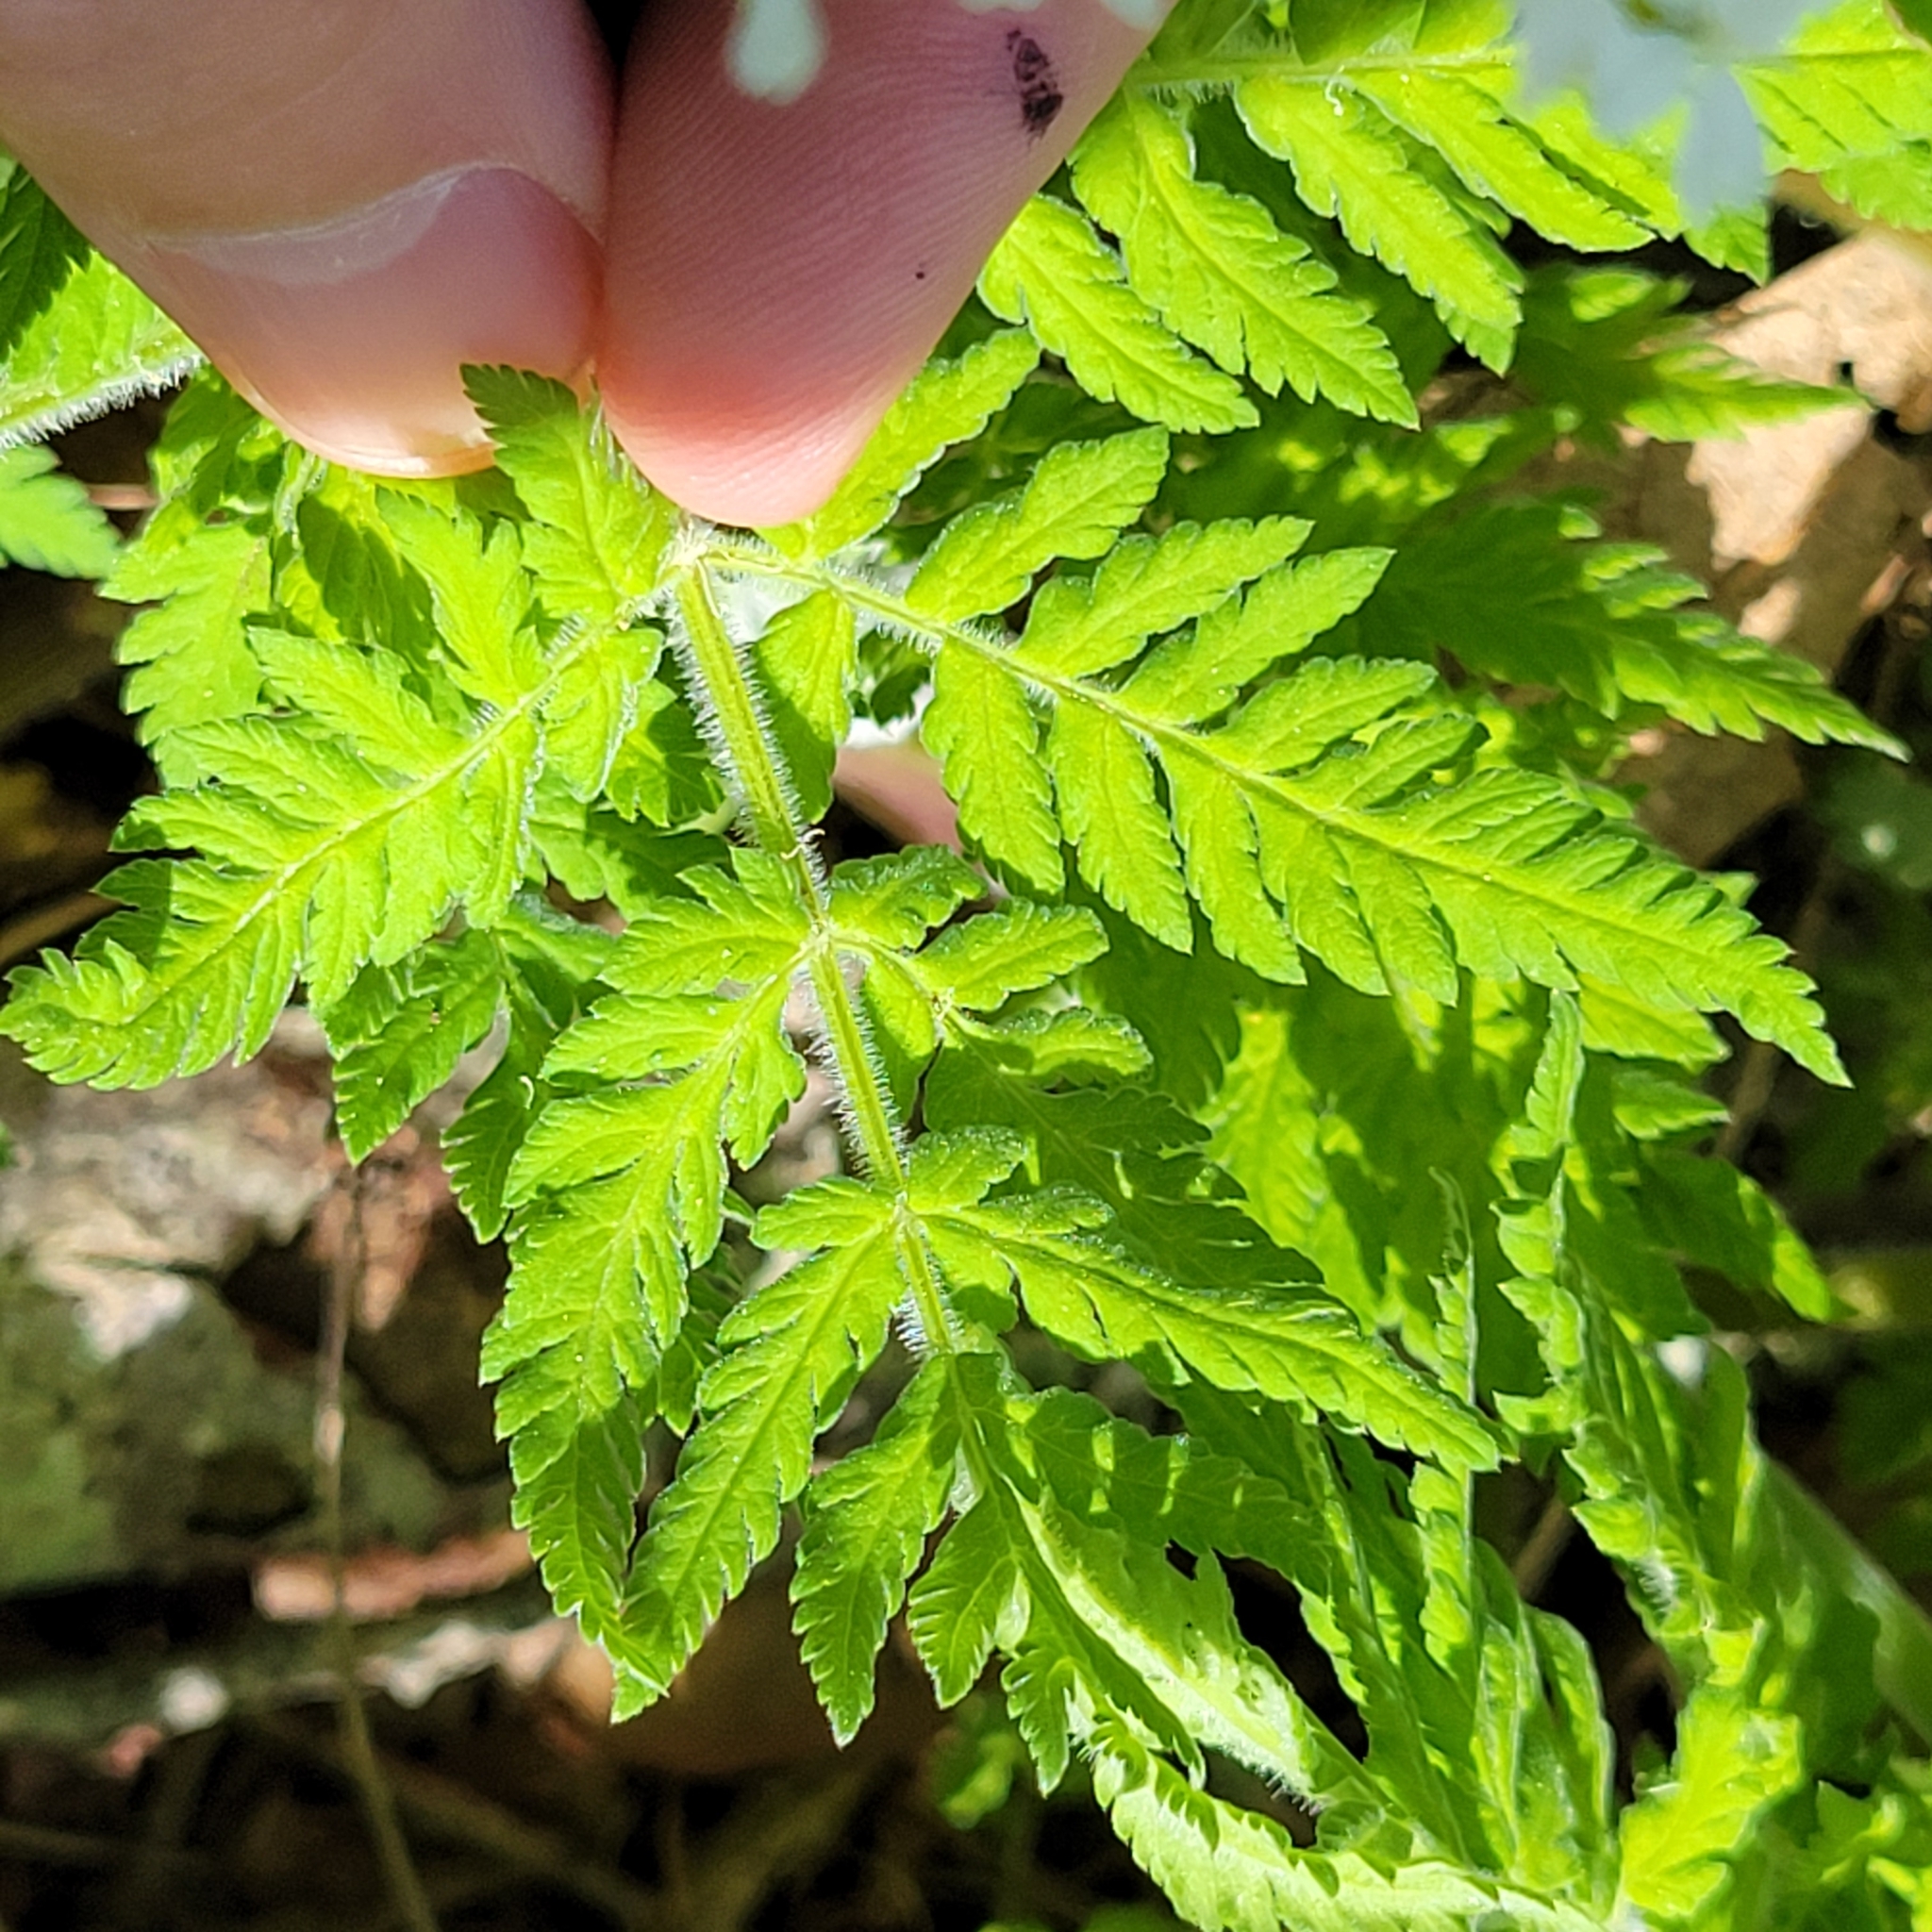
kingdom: Plantae
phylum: Tracheophyta
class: Magnoliopsida
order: Apiales
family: Apiaceae
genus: Myrrhis
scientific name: Myrrhis odorata
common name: Sweet cicely
